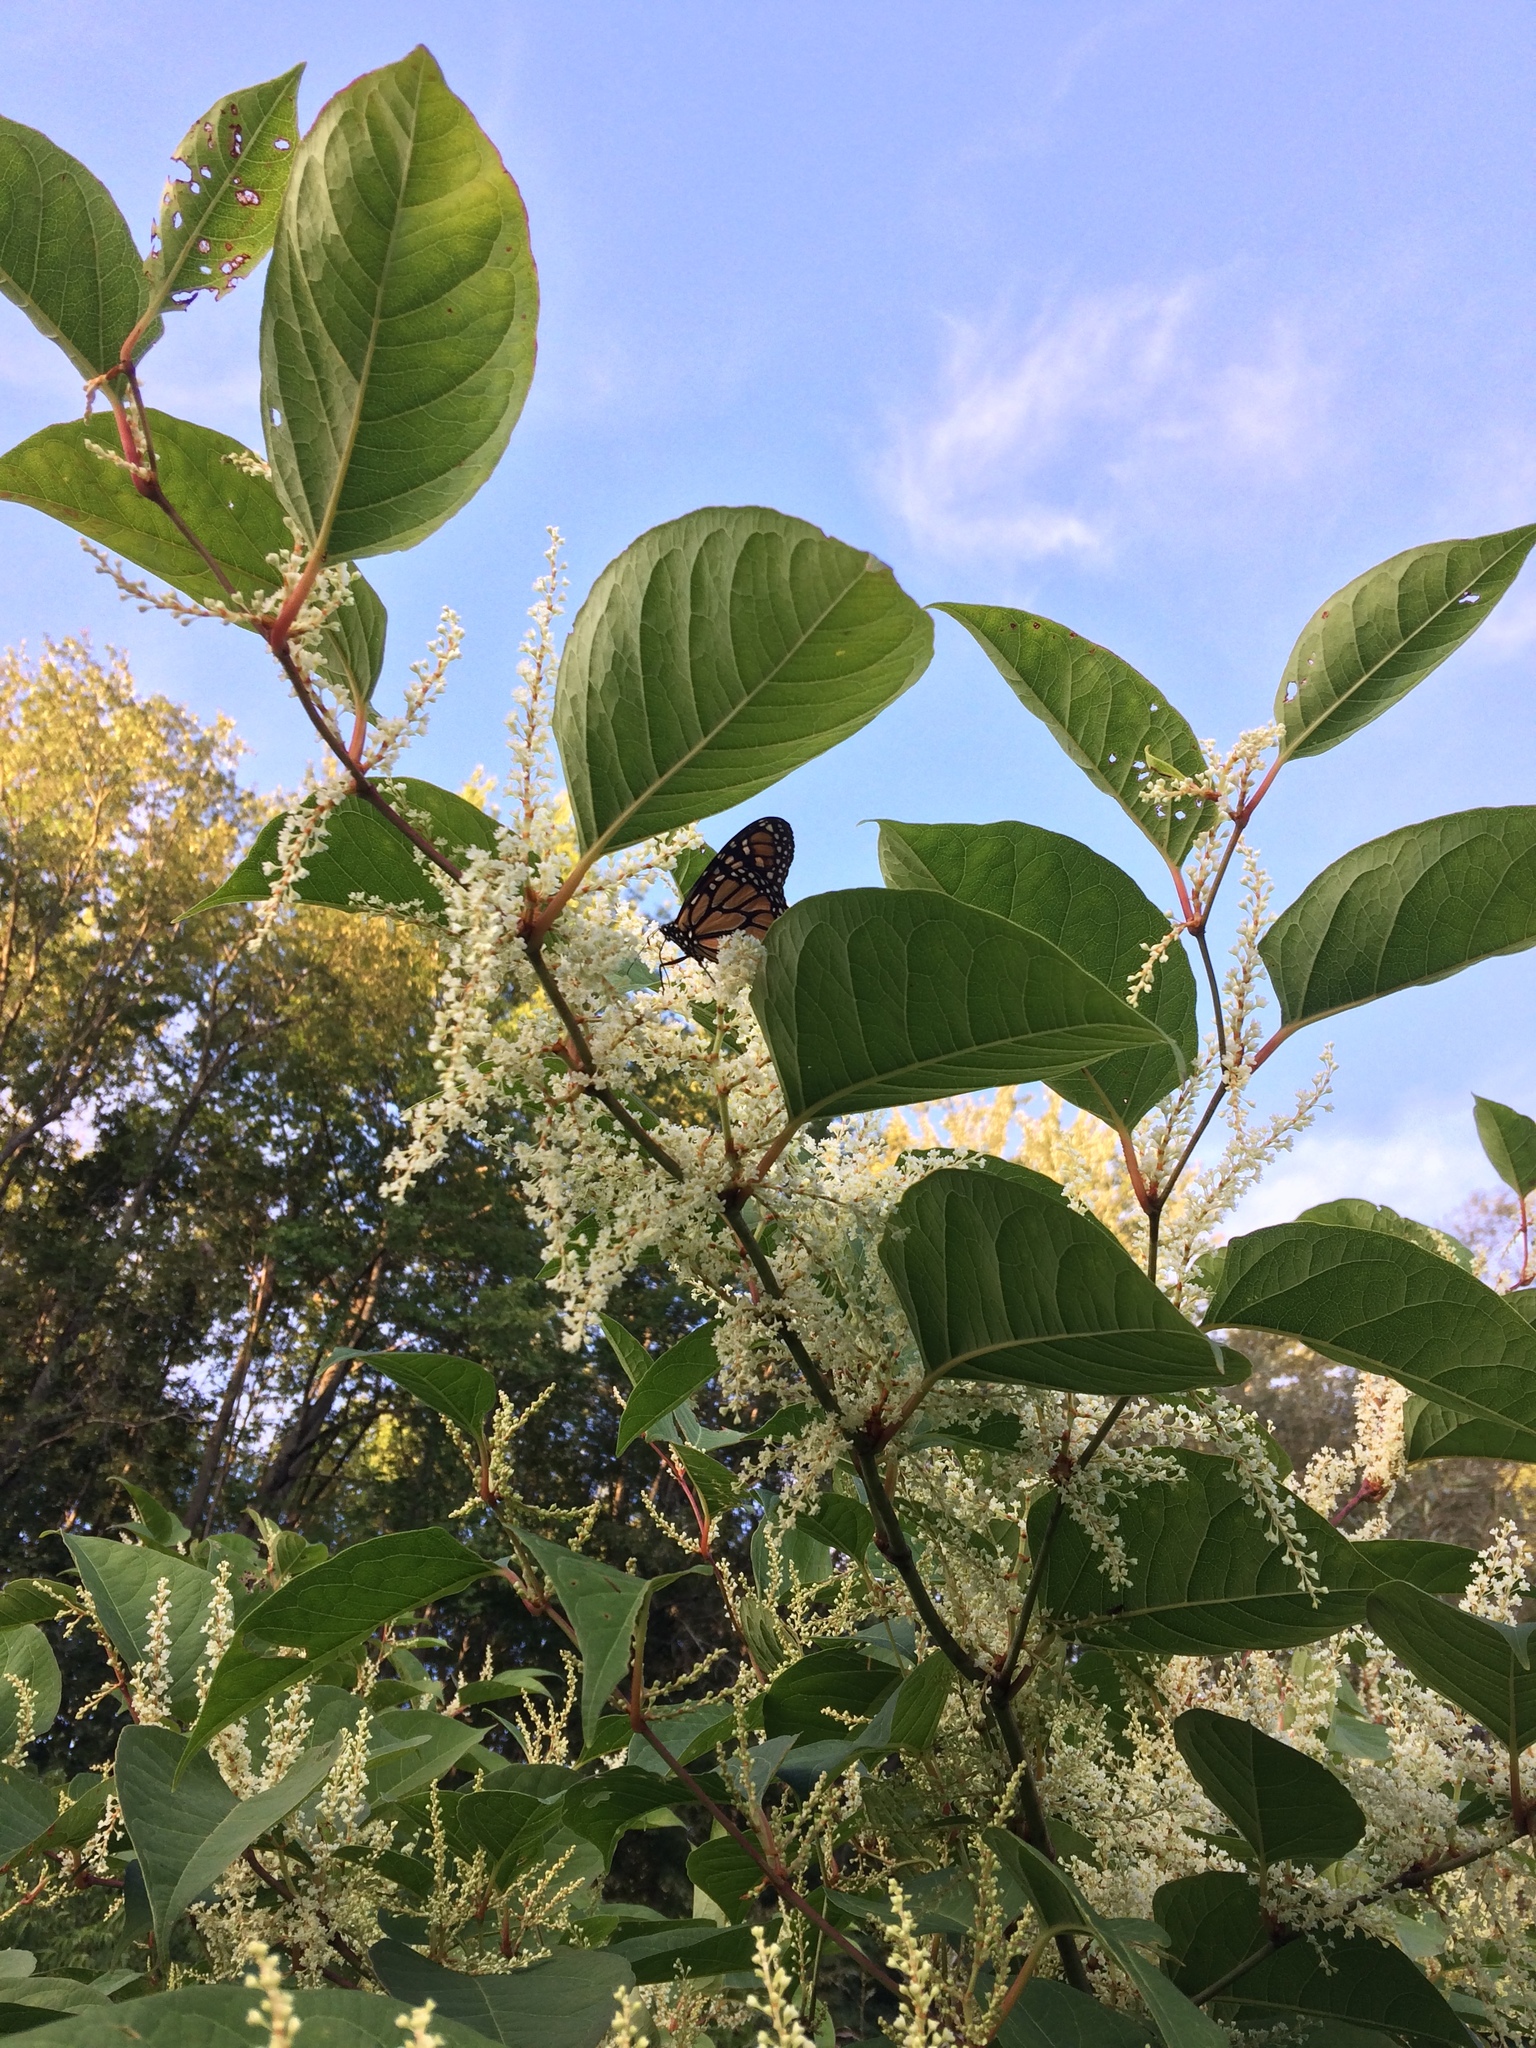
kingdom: Animalia
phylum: Arthropoda
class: Insecta
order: Lepidoptera
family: Nymphalidae
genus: Danaus
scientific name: Danaus plexippus
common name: Monarch
